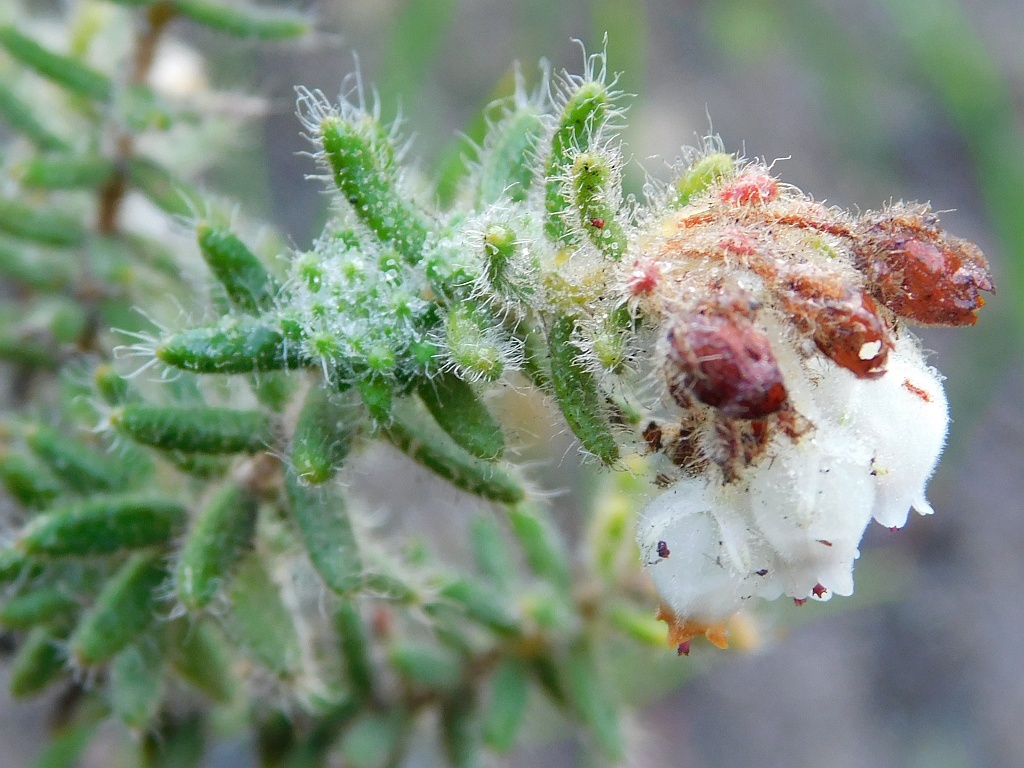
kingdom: Plantae
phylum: Tracheophyta
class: Magnoliopsida
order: Ericales
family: Ericaceae
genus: Erica
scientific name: Erica pannosa
